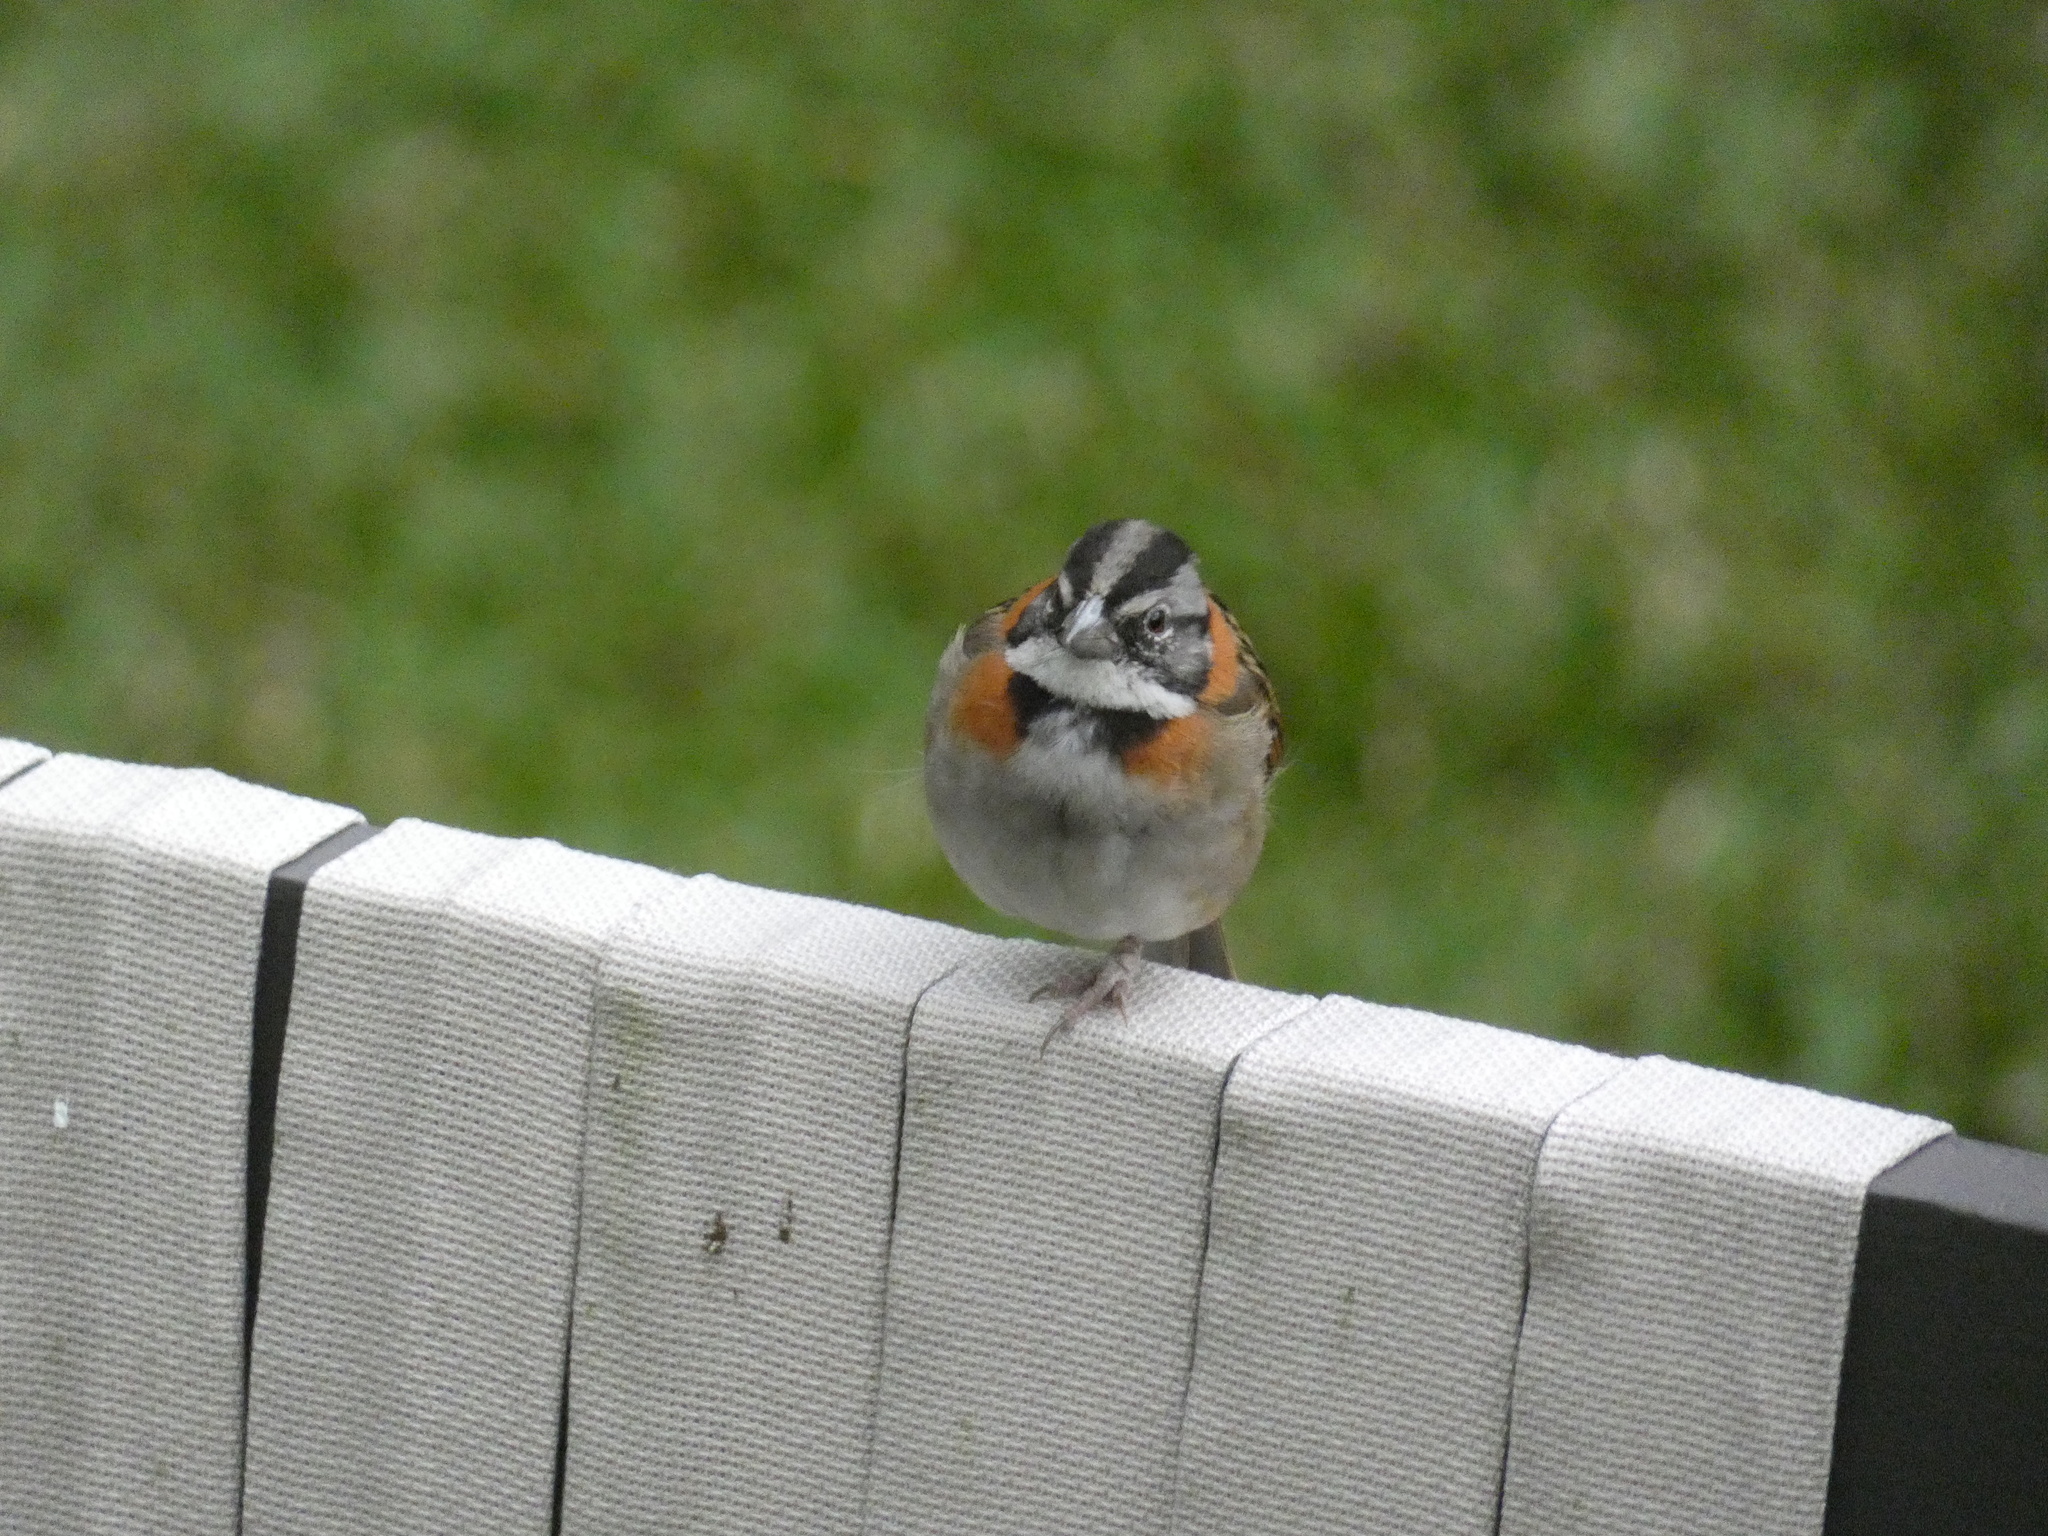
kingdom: Animalia
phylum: Chordata
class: Aves
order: Passeriformes
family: Passerellidae
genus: Zonotrichia
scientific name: Zonotrichia capensis
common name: Rufous-collared sparrow
